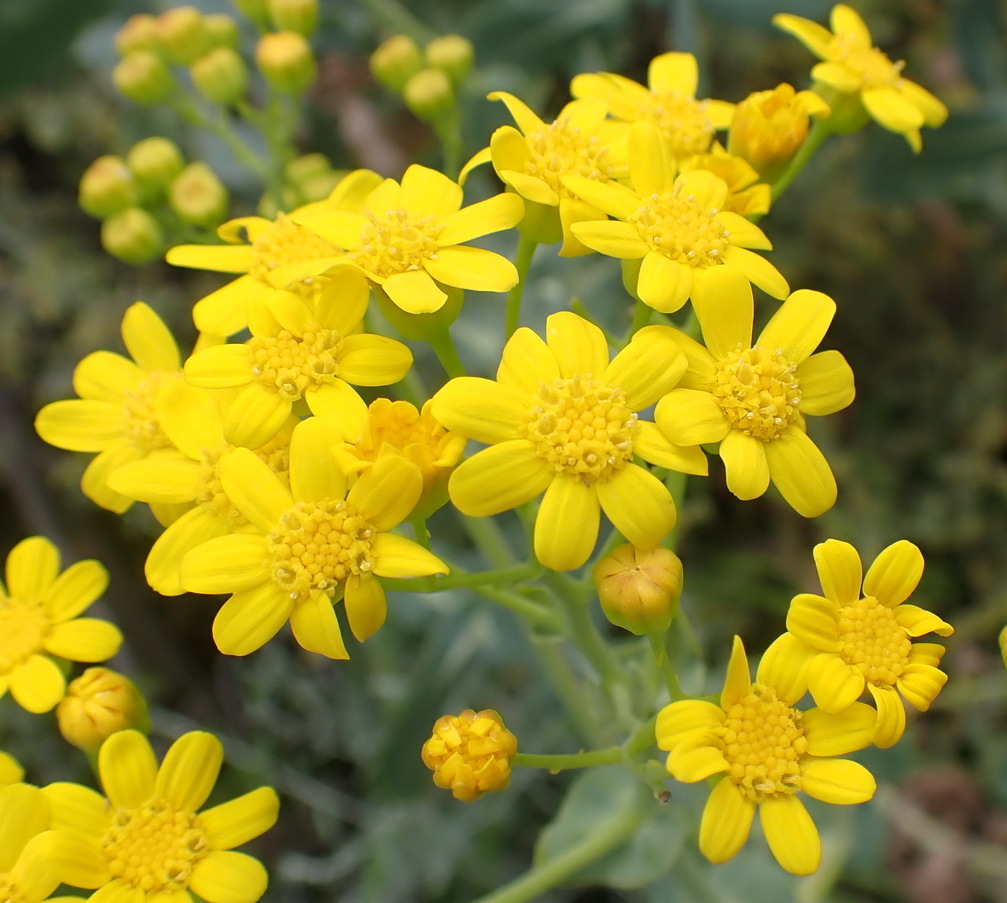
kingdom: Plantae
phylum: Tracheophyta
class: Magnoliopsida
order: Asterales
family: Asteraceae
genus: Othonna
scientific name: Othonna parviflora
